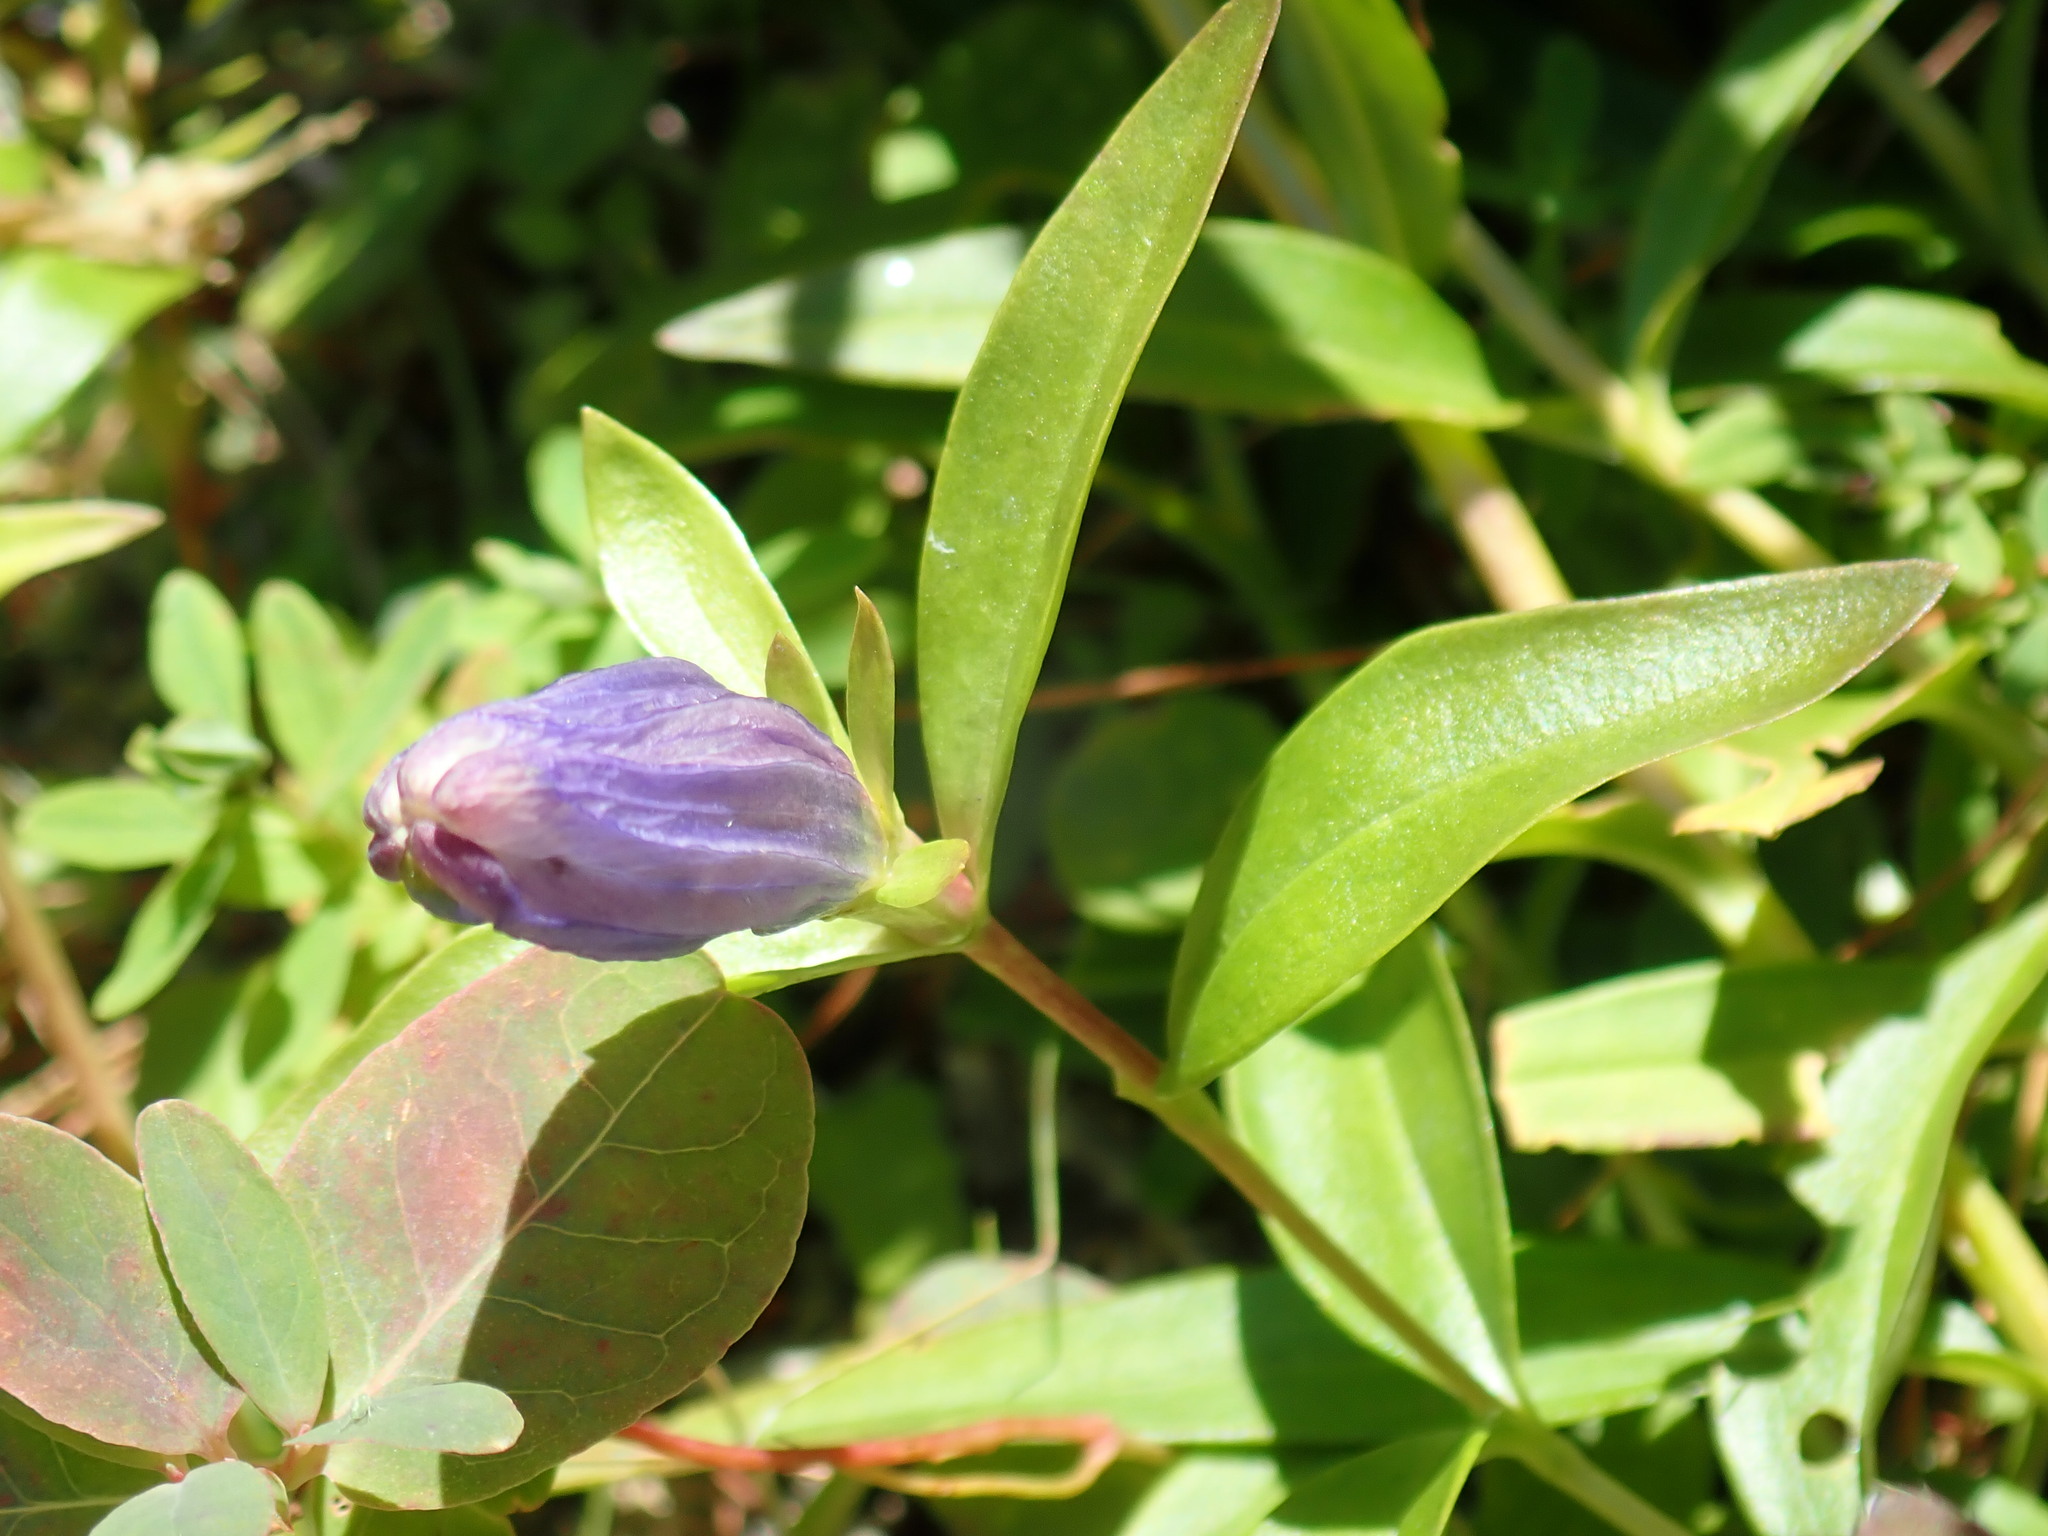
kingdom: Plantae
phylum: Tracheophyta
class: Magnoliopsida
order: Gentianales
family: Gentianaceae
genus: Gentiana
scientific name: Gentiana linearis
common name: Bastard gentian
